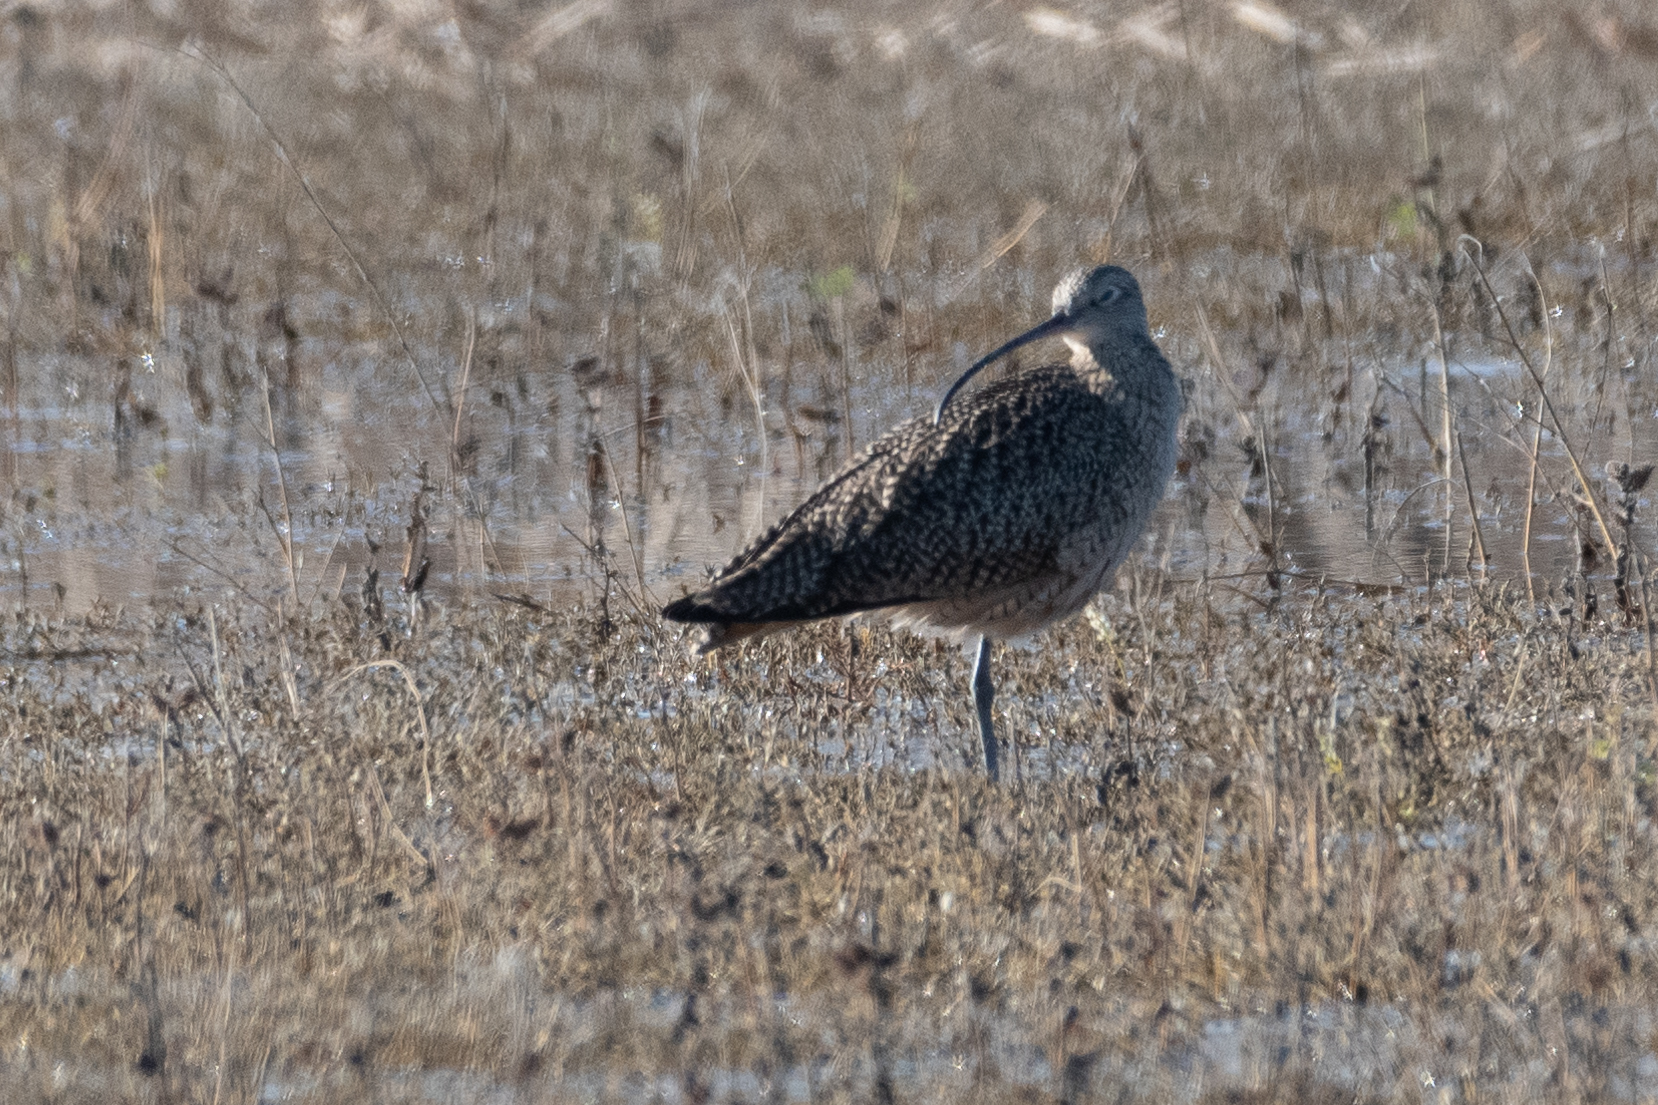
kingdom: Animalia
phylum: Chordata
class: Aves
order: Charadriiformes
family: Scolopacidae
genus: Numenius
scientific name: Numenius americanus
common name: Long-billed curlew
